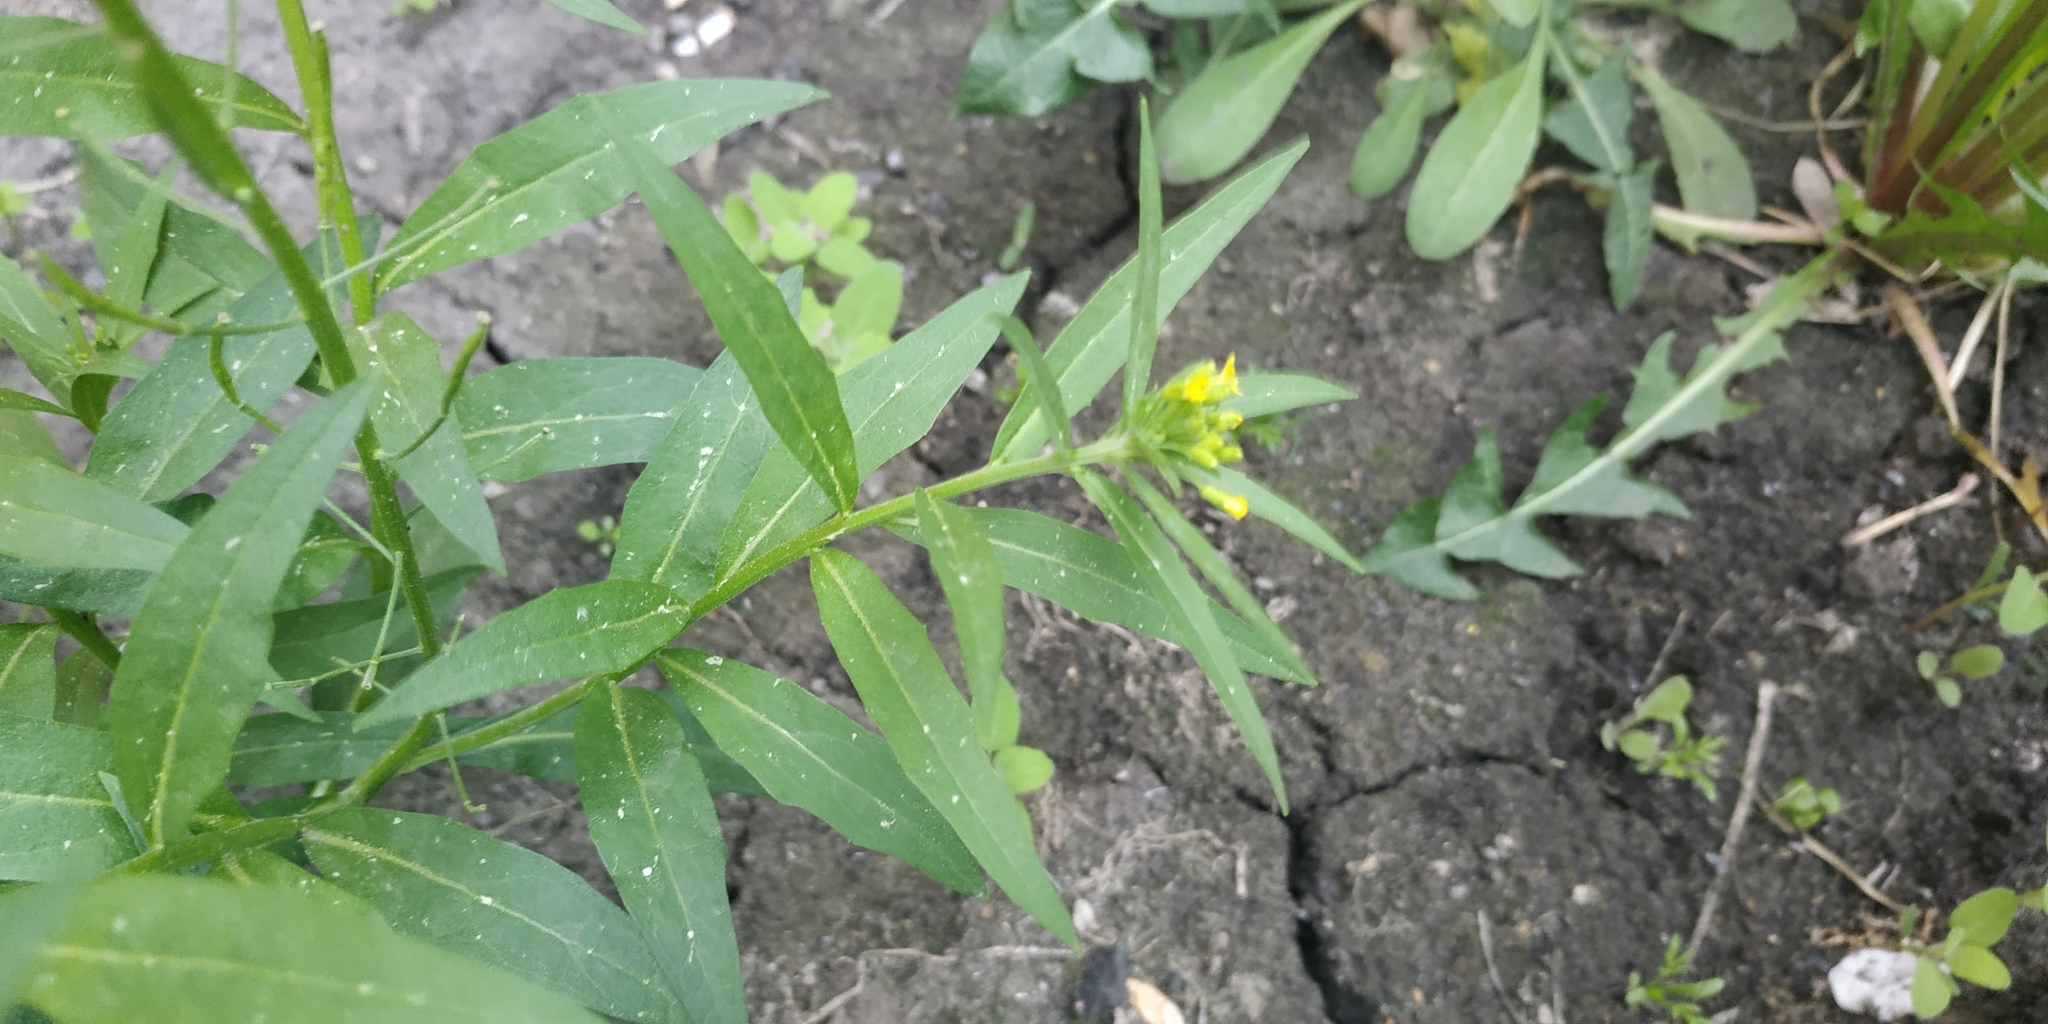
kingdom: Plantae
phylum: Tracheophyta
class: Magnoliopsida
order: Brassicales
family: Brassicaceae
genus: Erysimum
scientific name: Erysimum cheiranthoides
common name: Treacle mustard
